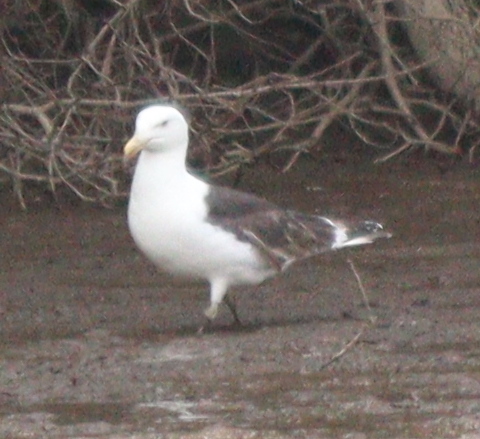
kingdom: Animalia
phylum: Chordata
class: Aves
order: Charadriiformes
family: Laridae
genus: Larus
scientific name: Larus marinus
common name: Great black-backed gull
